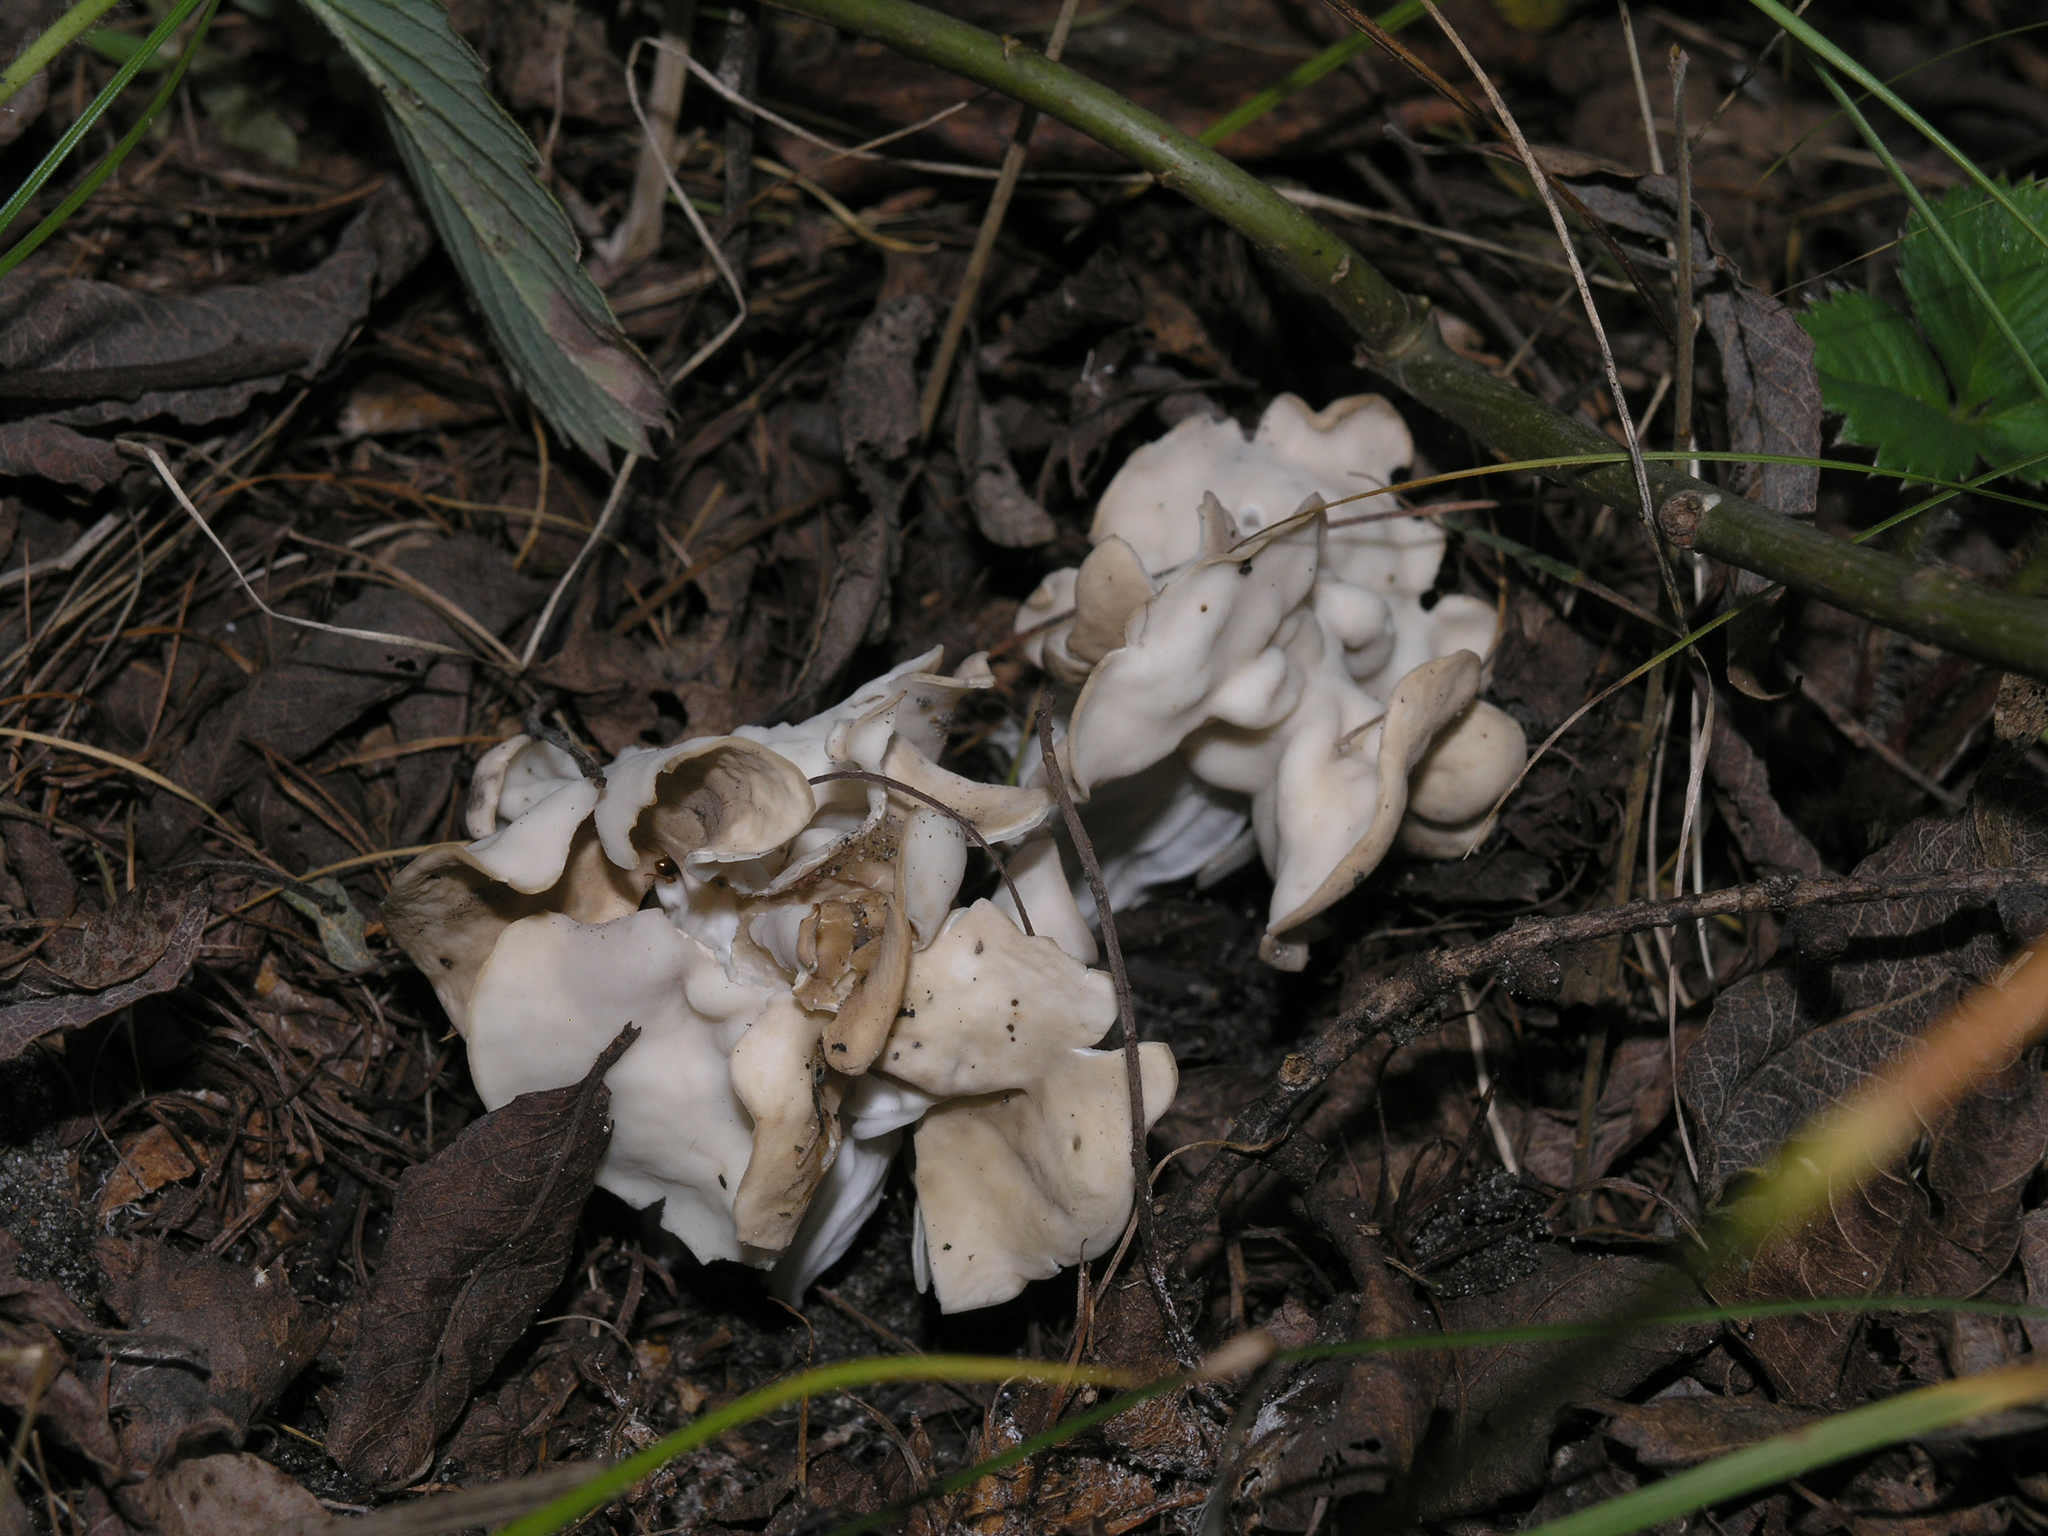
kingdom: Fungi
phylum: Ascomycota
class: Pezizomycetes
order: Pezizales
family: Helvellaceae
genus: Helvella
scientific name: Helvella crispa
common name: White saddle
